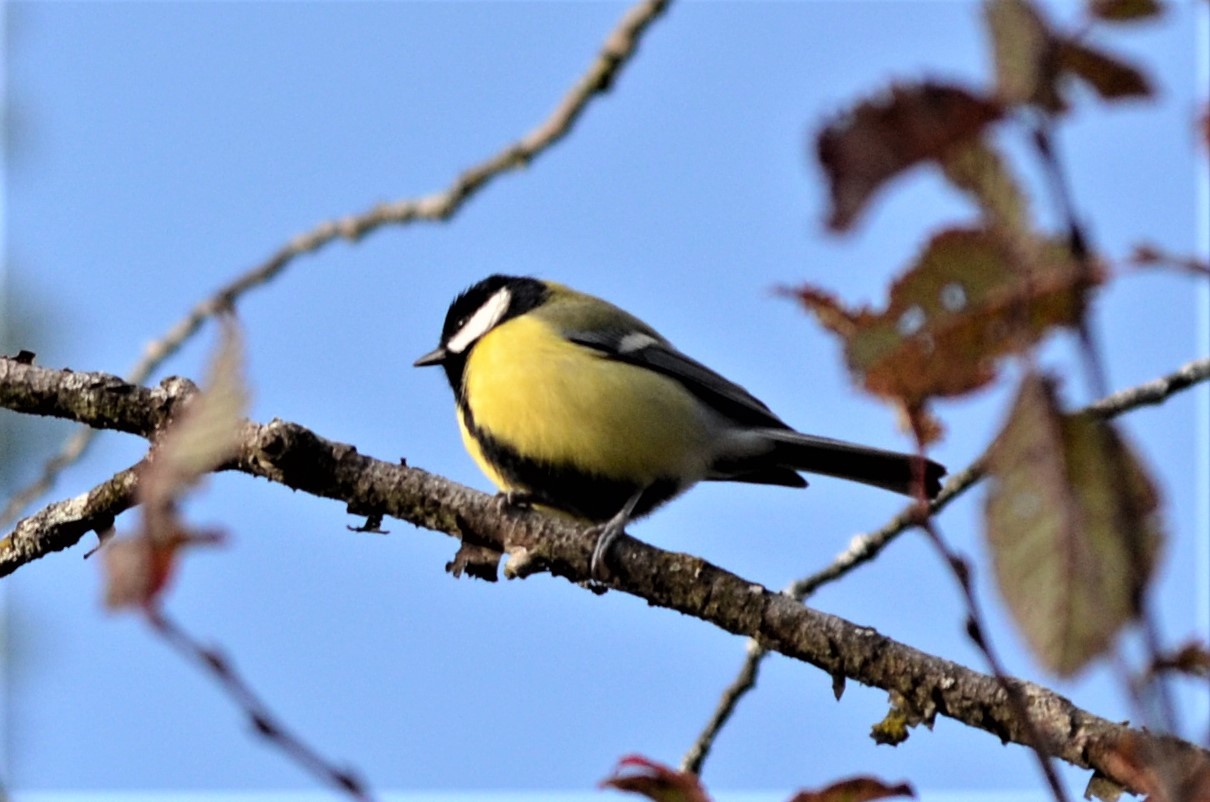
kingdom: Animalia
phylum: Chordata
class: Aves
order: Passeriformes
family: Paridae
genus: Parus
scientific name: Parus major
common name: Great tit
